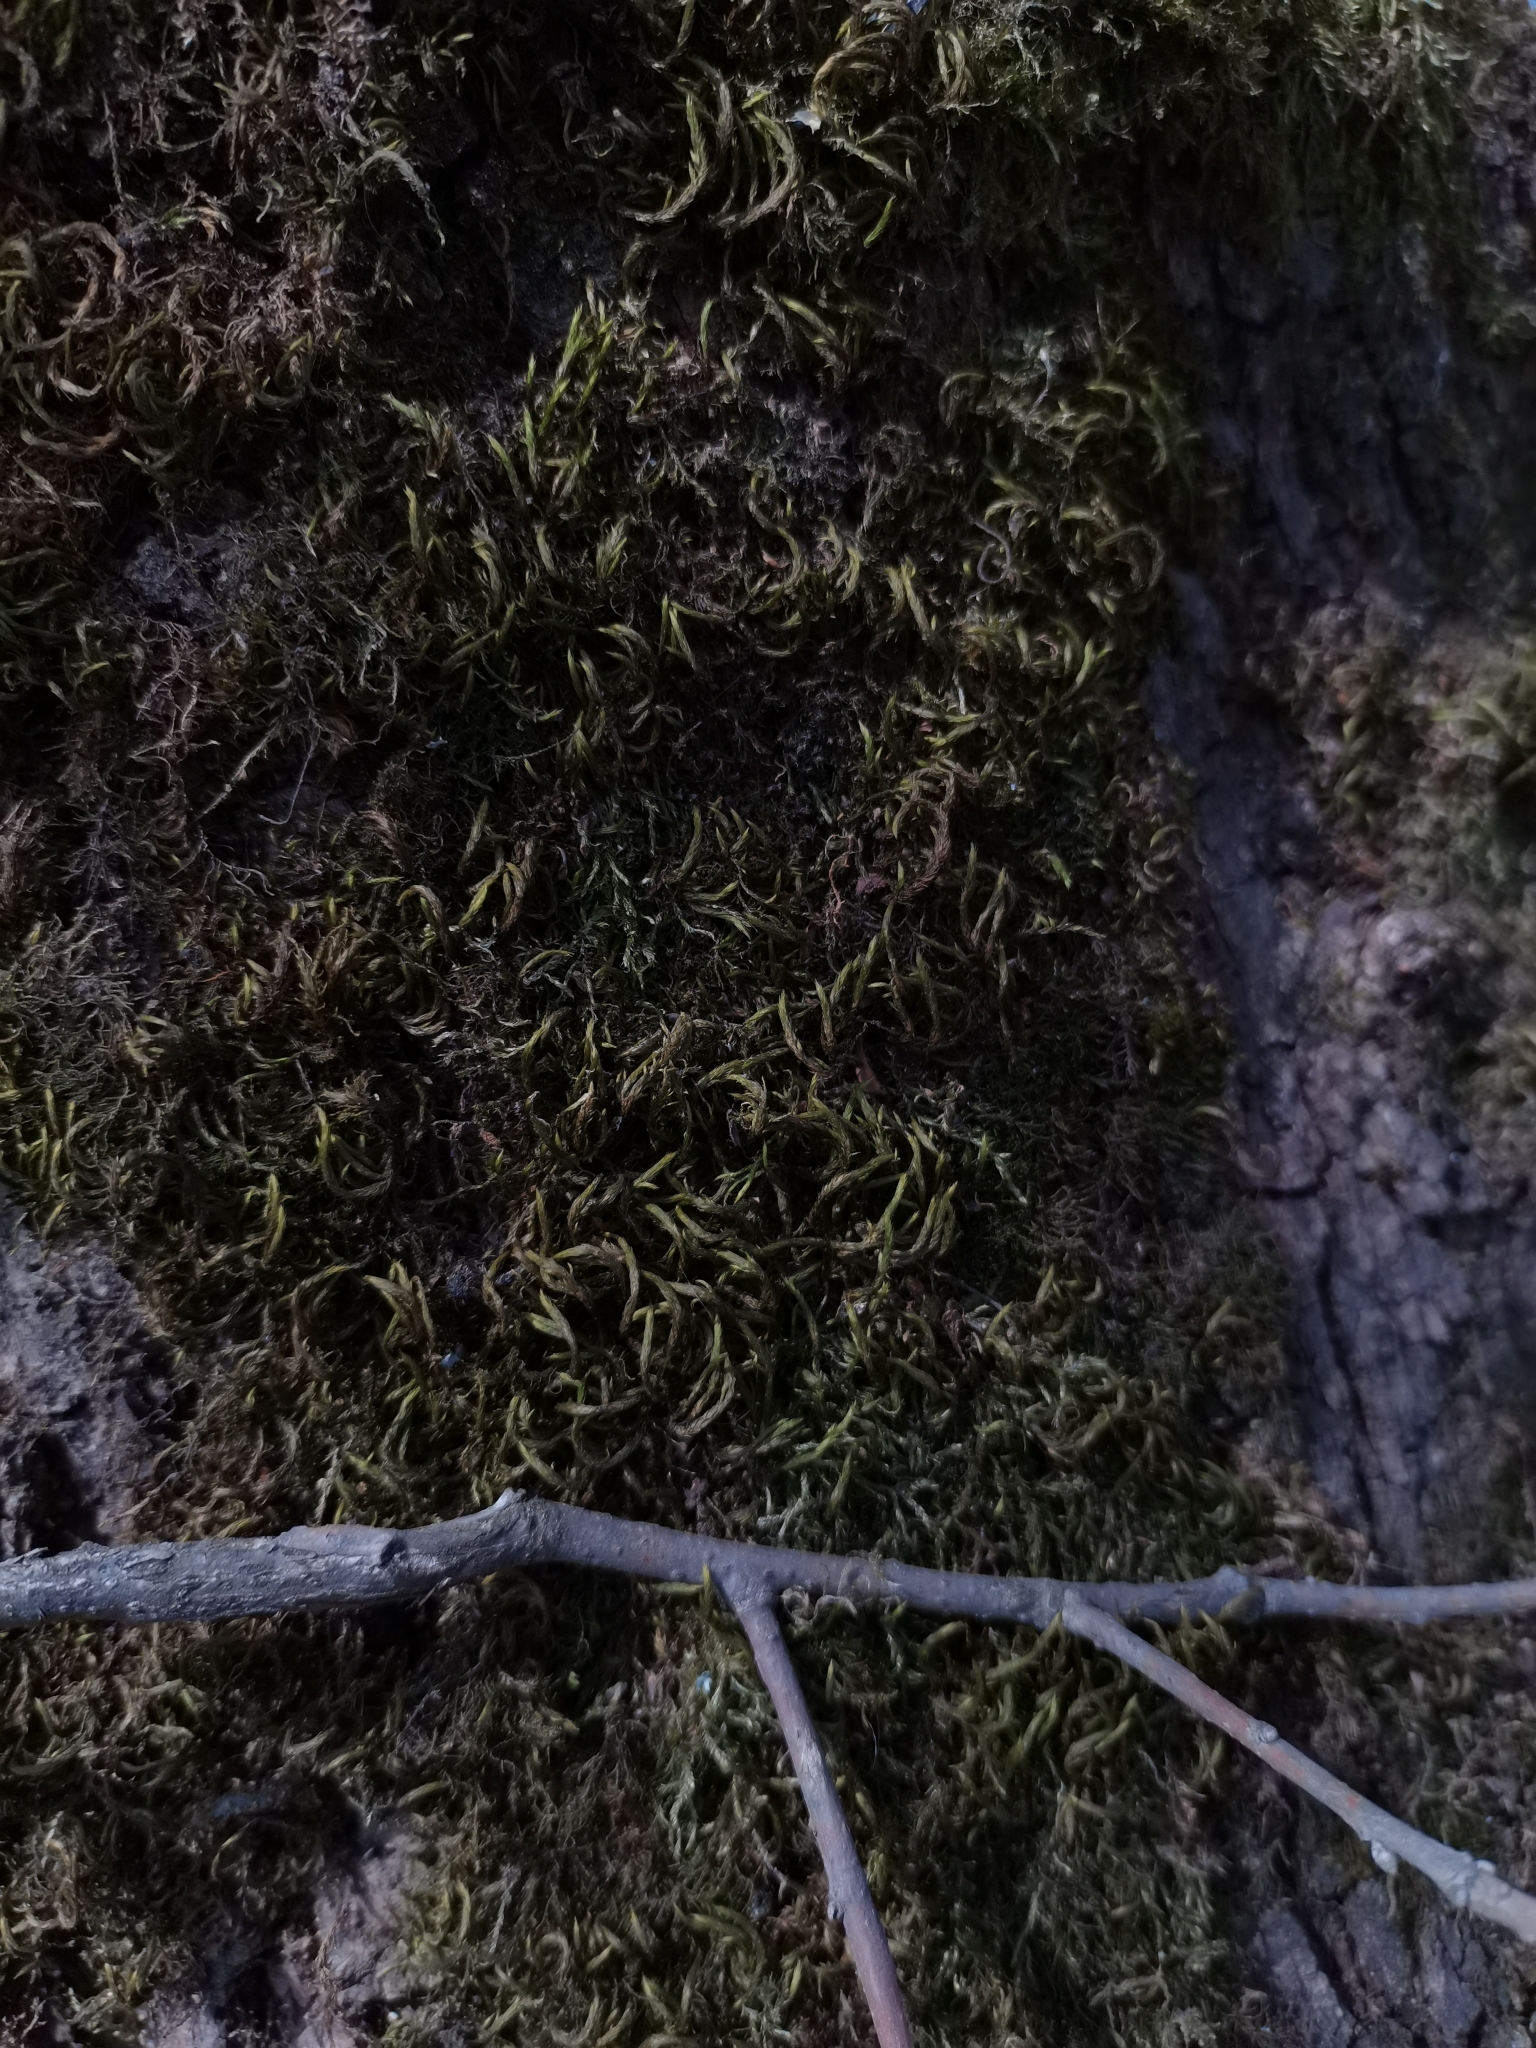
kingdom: Plantae
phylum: Bryophyta
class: Bryopsida
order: Hypnales
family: Leucodontaceae
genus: Leucodon
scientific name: Leucodon sciuroides
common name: Squirrel-tail moss
